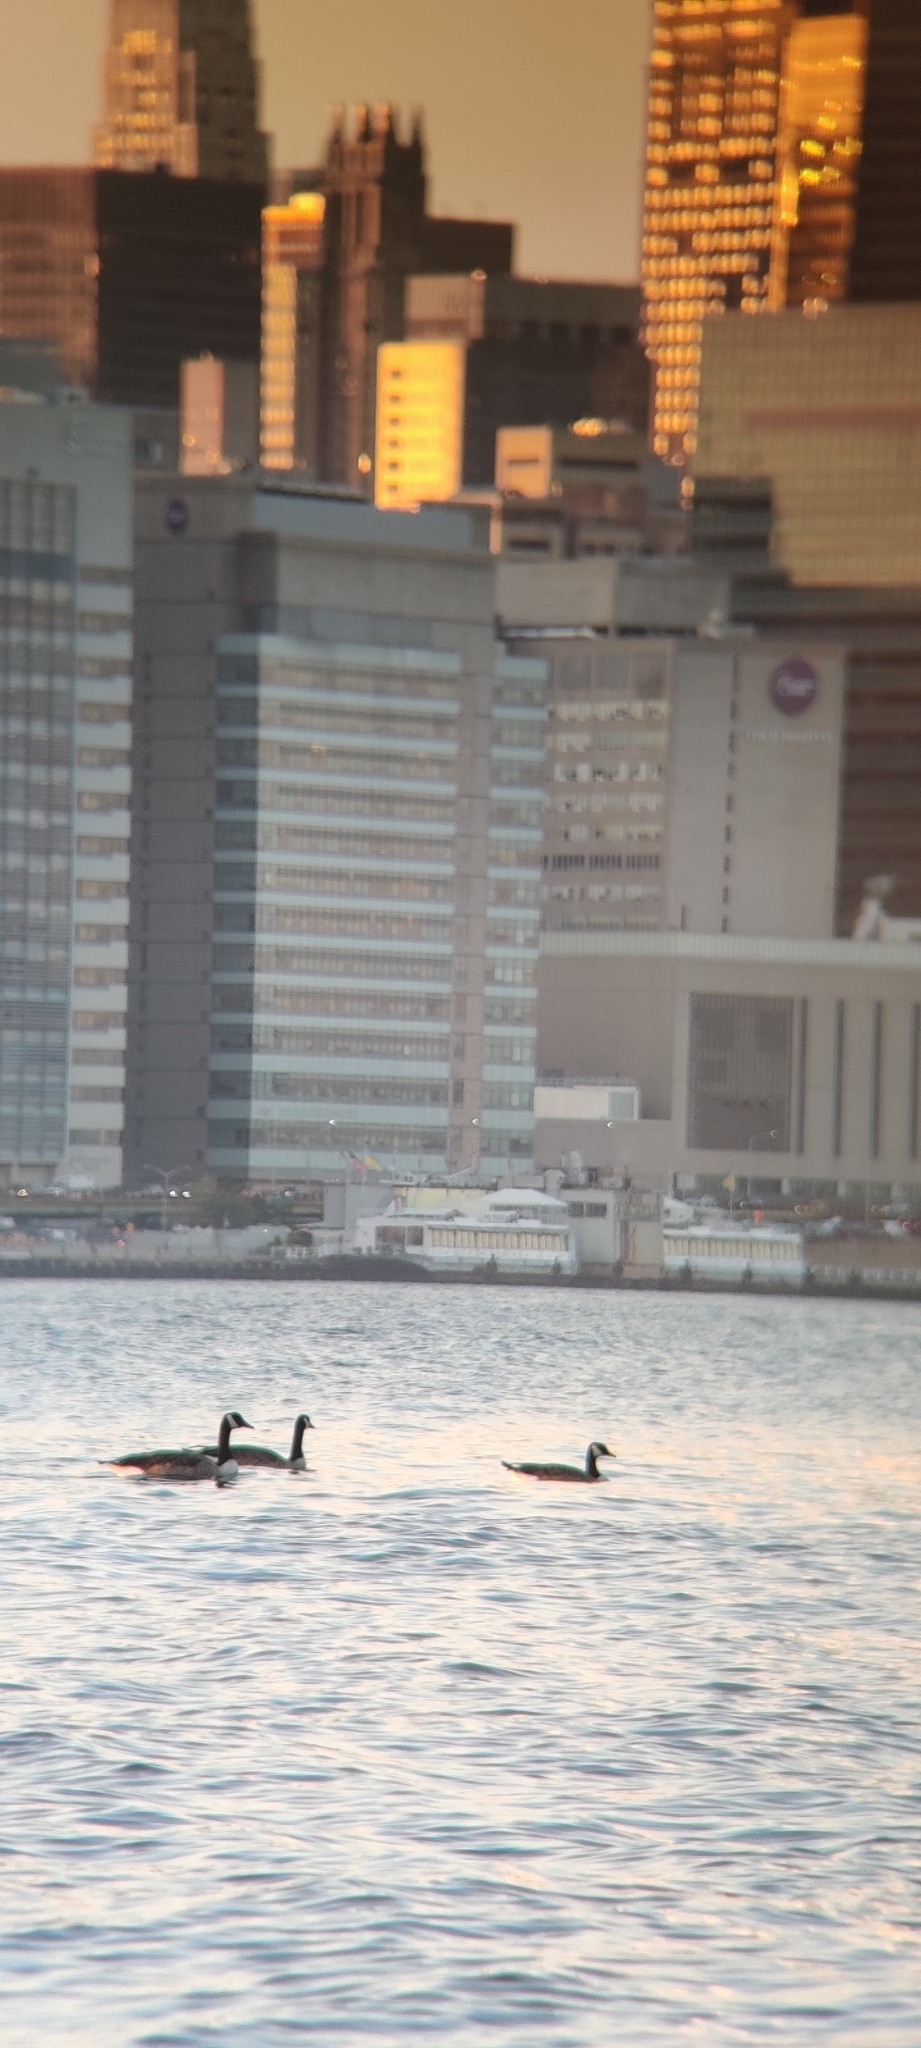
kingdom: Animalia
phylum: Chordata
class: Aves
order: Anseriformes
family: Anatidae
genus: Branta
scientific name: Branta canadensis
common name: Canada goose
